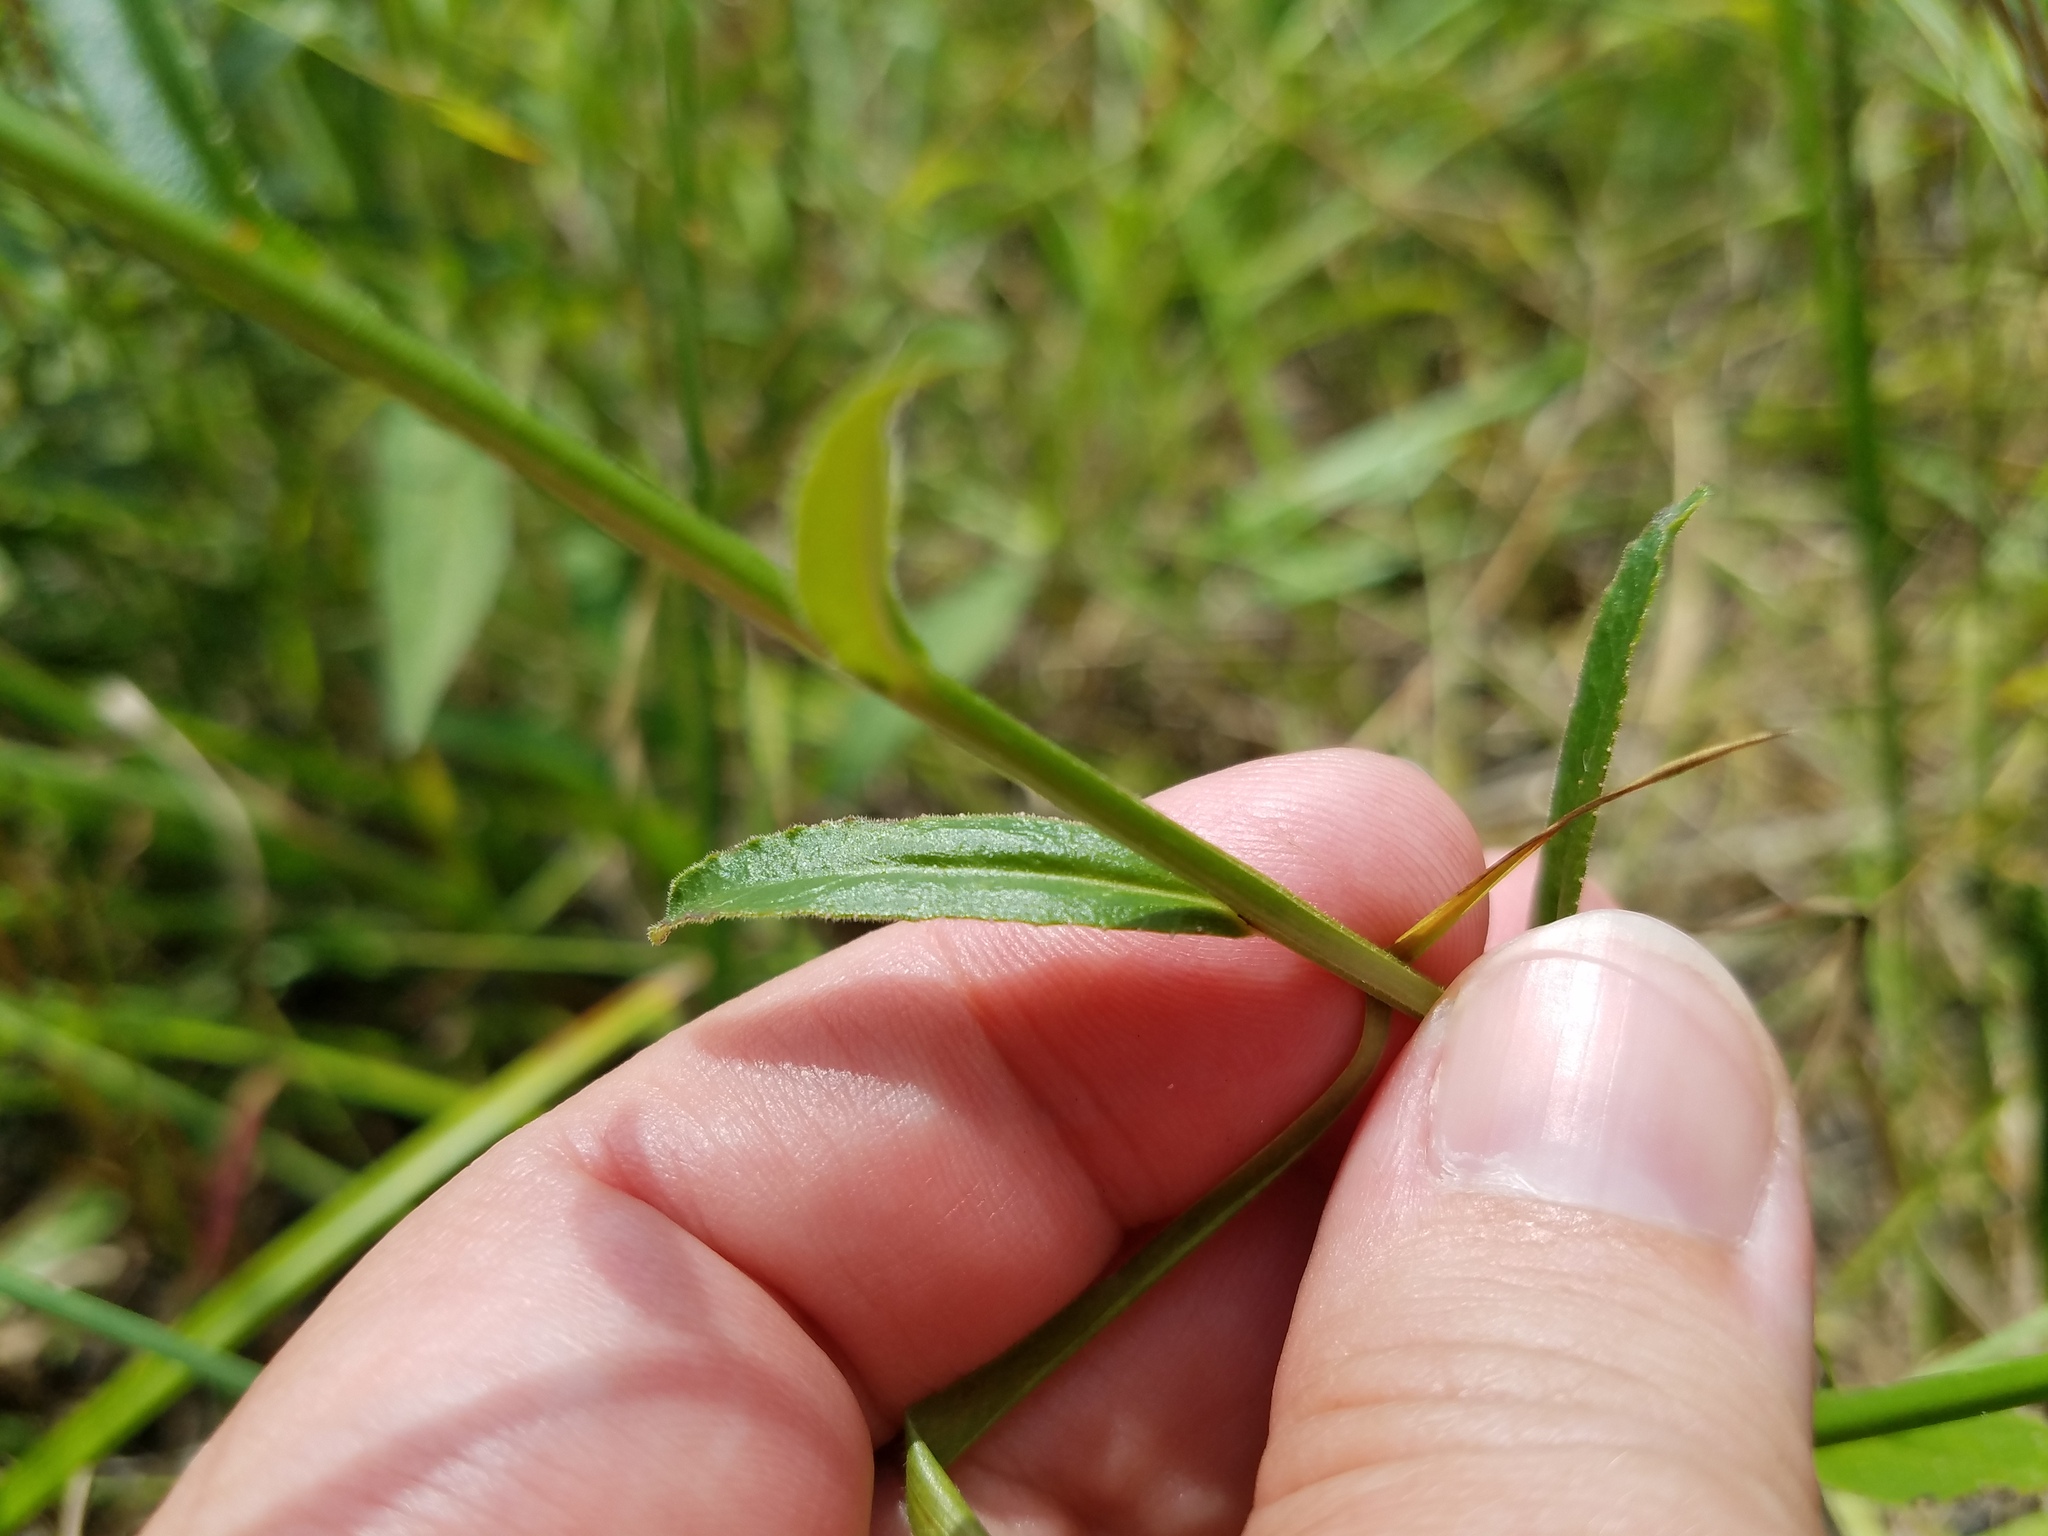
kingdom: Plantae
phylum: Tracheophyta
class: Magnoliopsida
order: Asterales
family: Campanulaceae
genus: Lobelia
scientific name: Lobelia spicata
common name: Pale-spike lobelia
